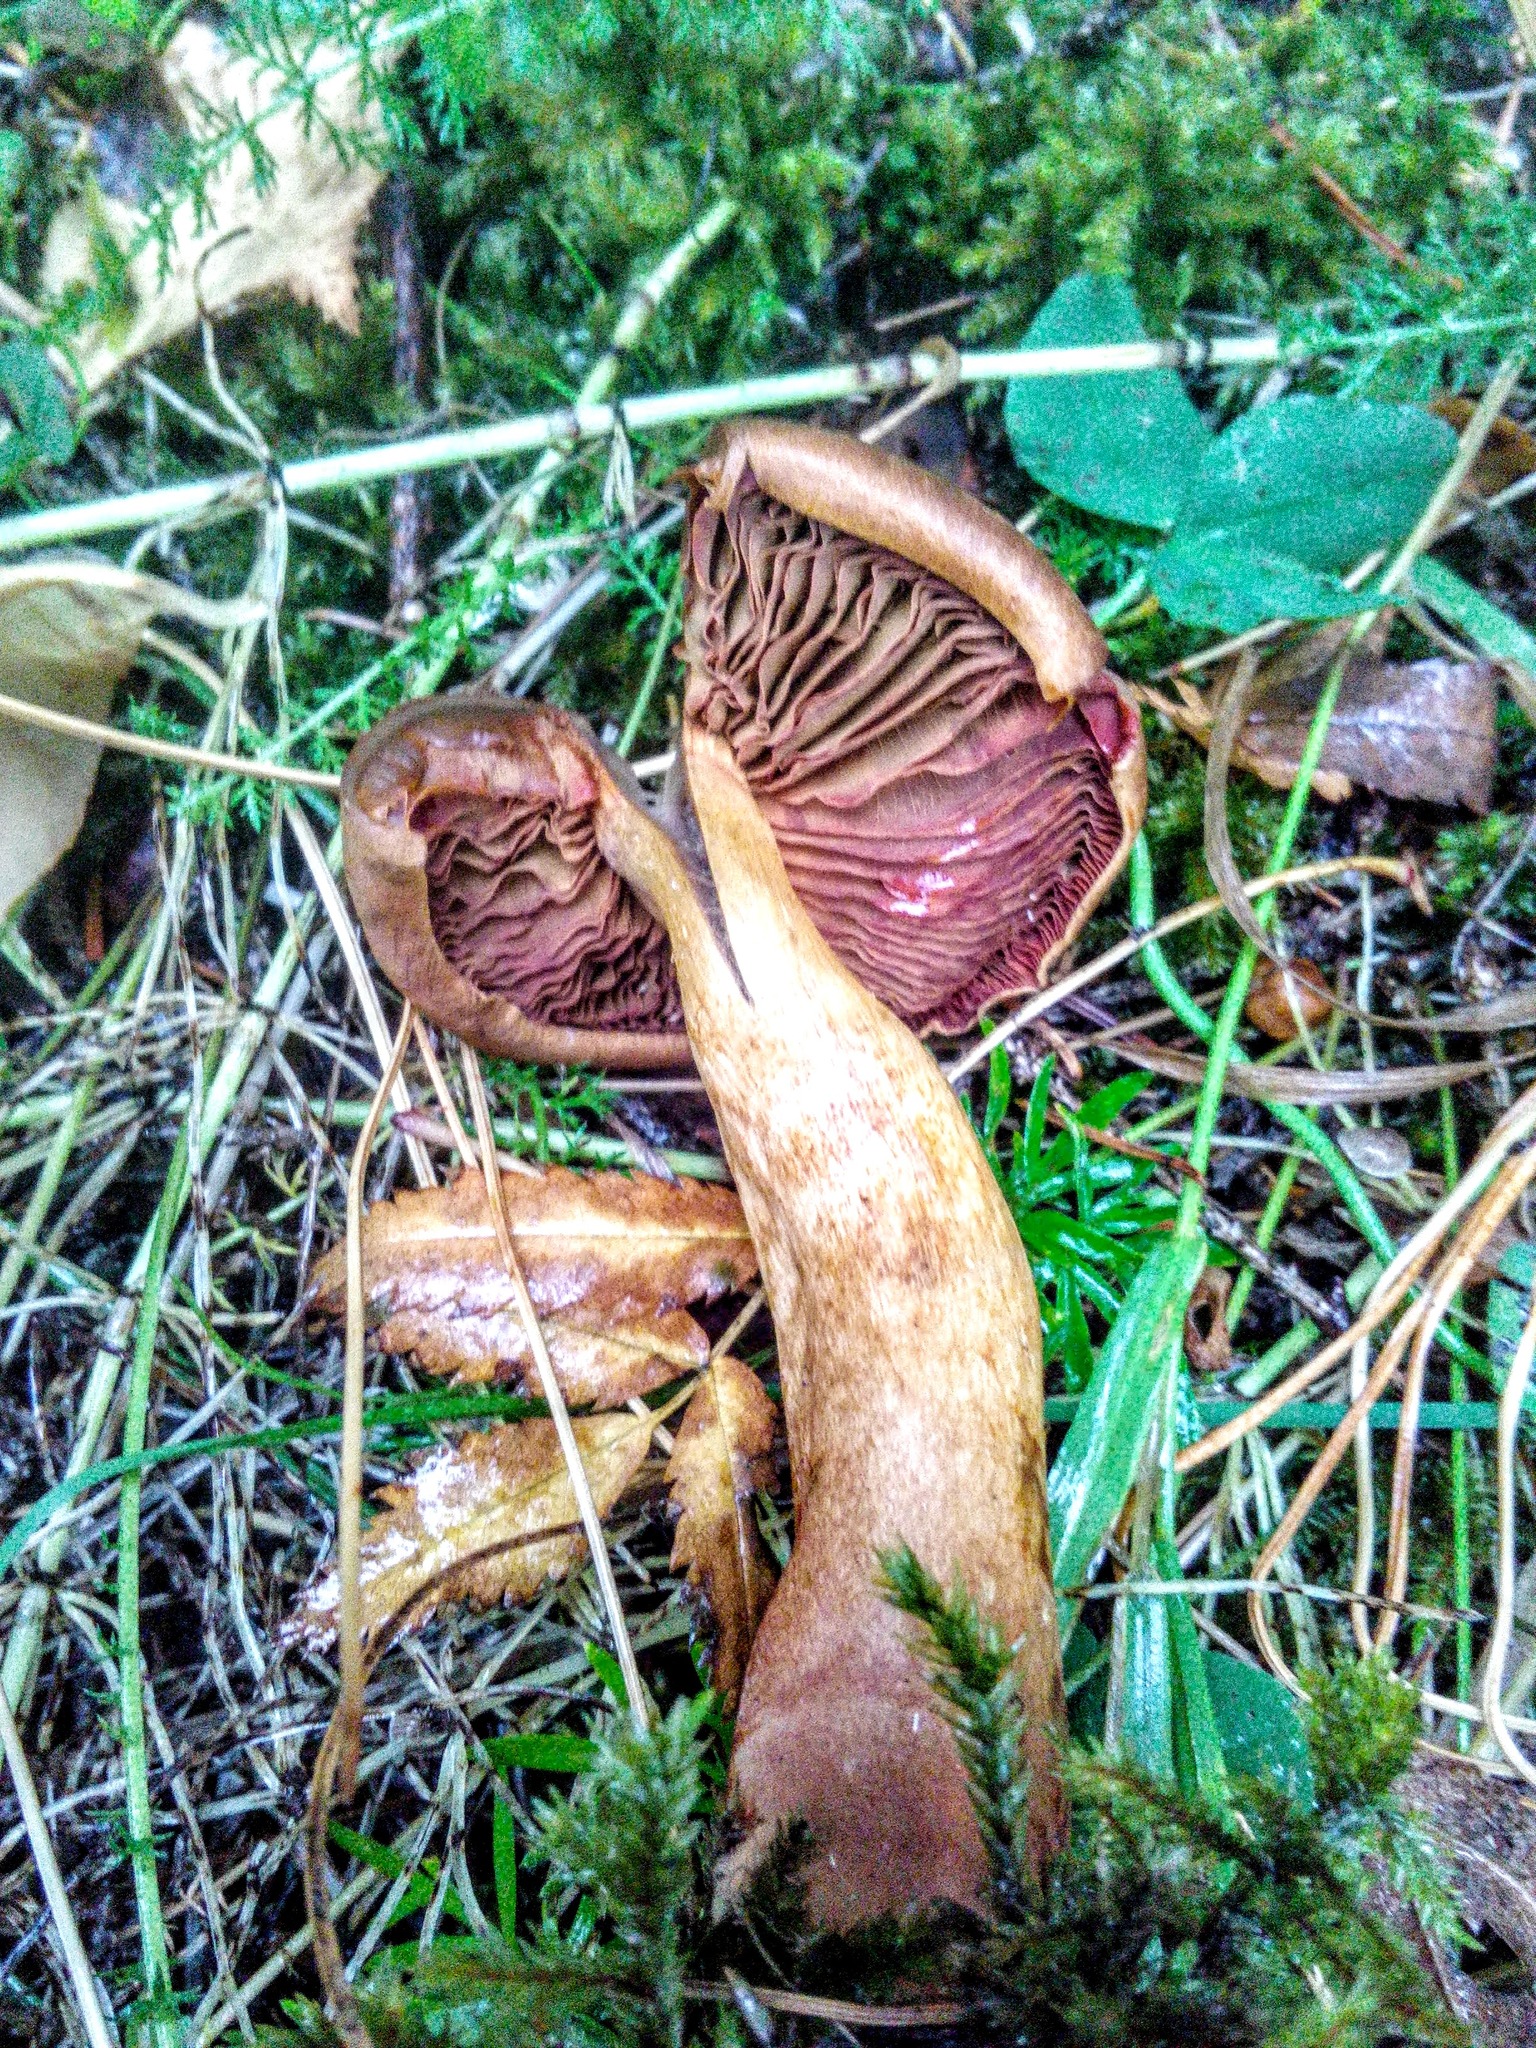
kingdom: Fungi
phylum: Basidiomycota
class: Agaricomycetes
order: Agaricales
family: Cortinariaceae
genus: Cortinarius
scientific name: Cortinarius cinnamomeus
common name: Cinnamon webcap
